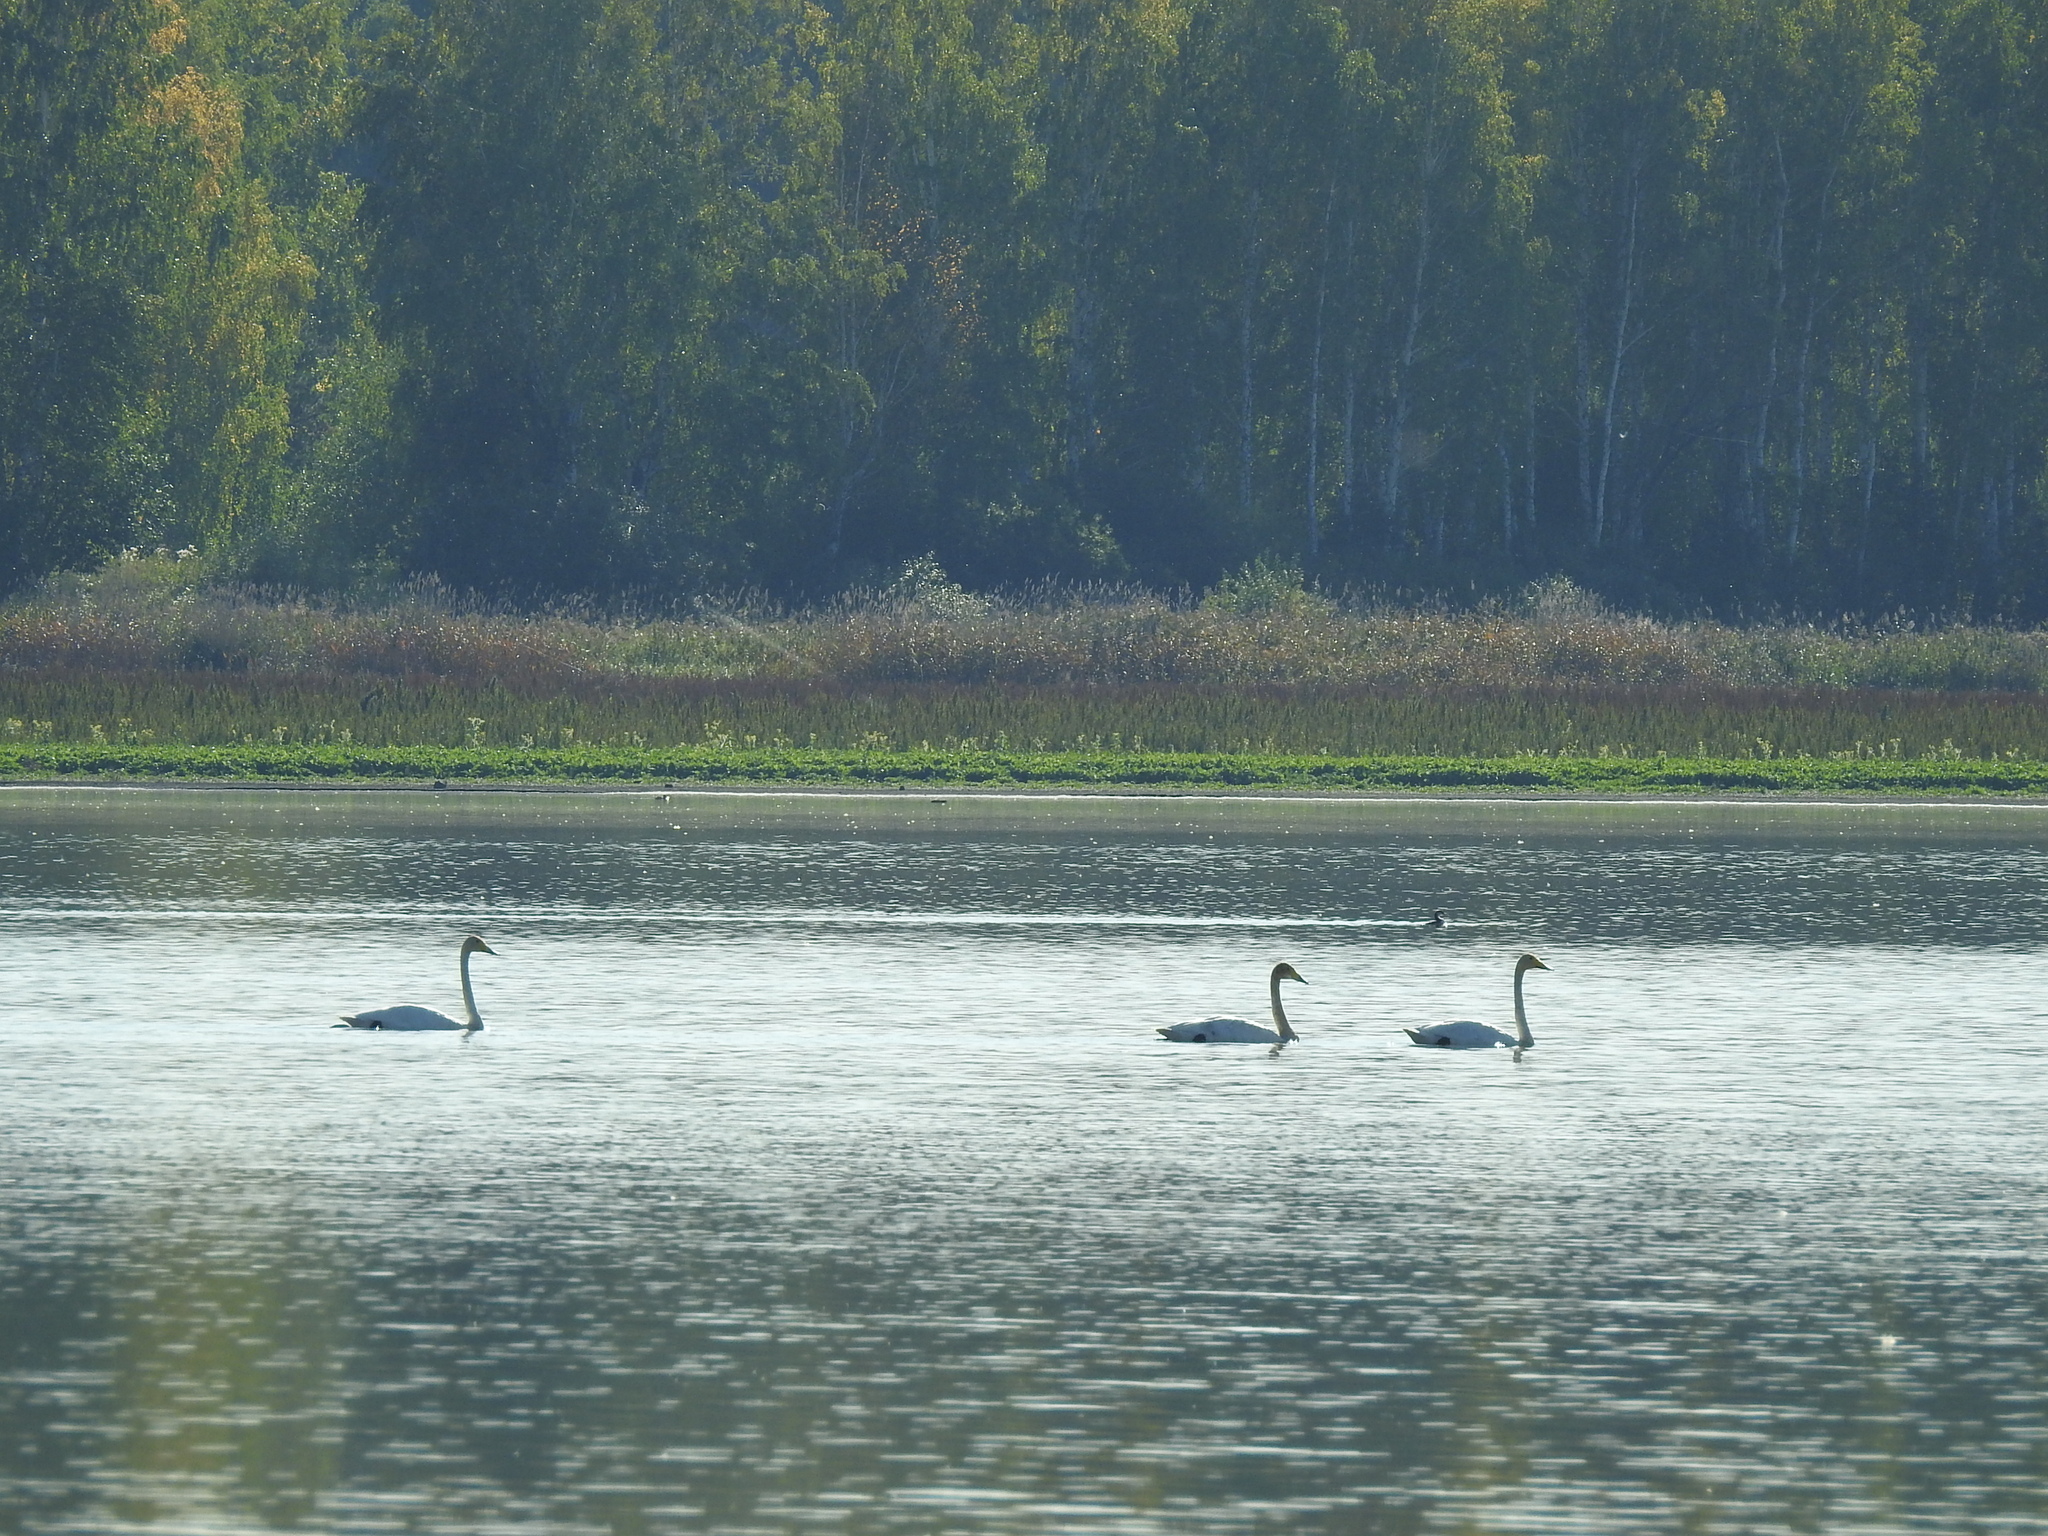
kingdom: Animalia
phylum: Chordata
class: Aves
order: Anseriformes
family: Anatidae
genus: Cygnus
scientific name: Cygnus cygnus
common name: Whooper swan
